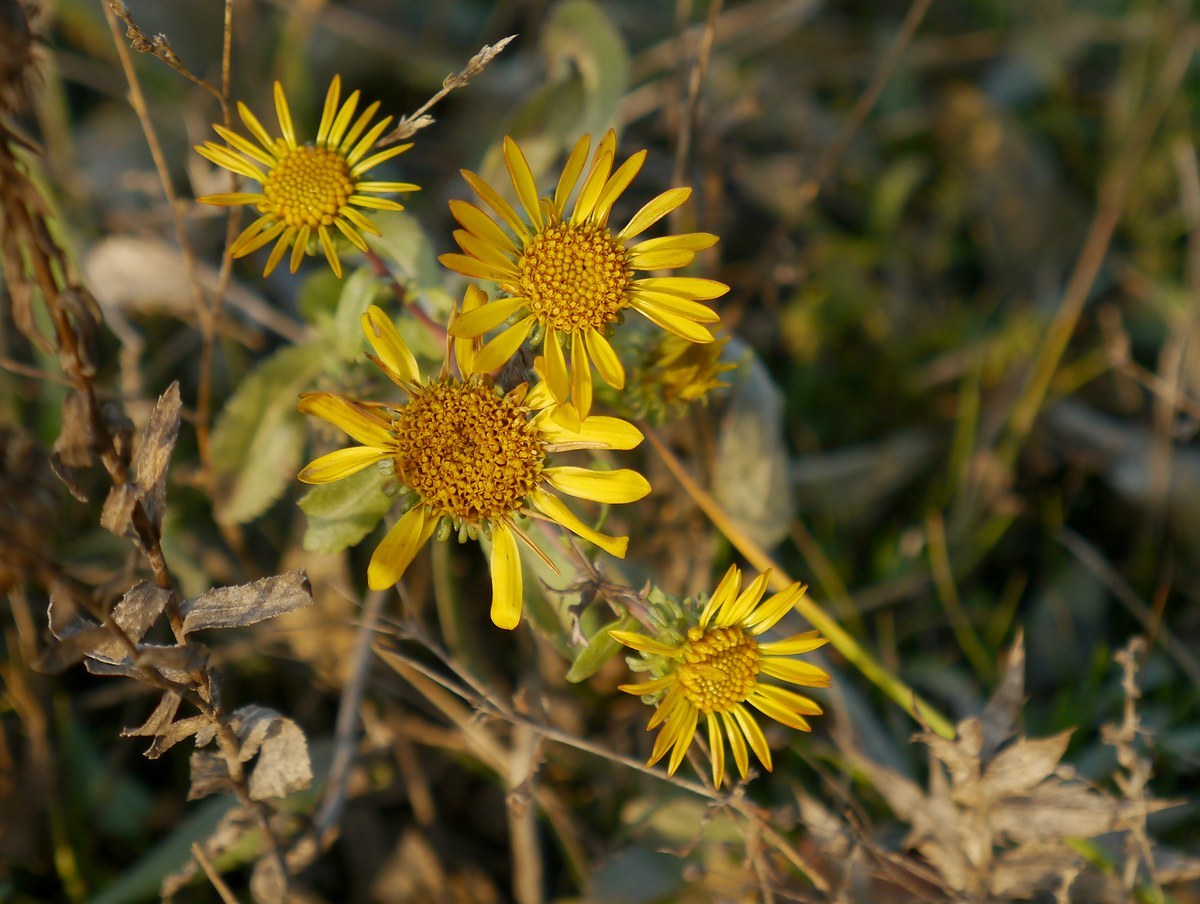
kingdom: Plantae
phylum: Tracheophyta
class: Magnoliopsida
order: Asterales
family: Asteraceae
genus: Grindelia
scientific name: Grindelia squarrosa
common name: Curly-cup gumweed
